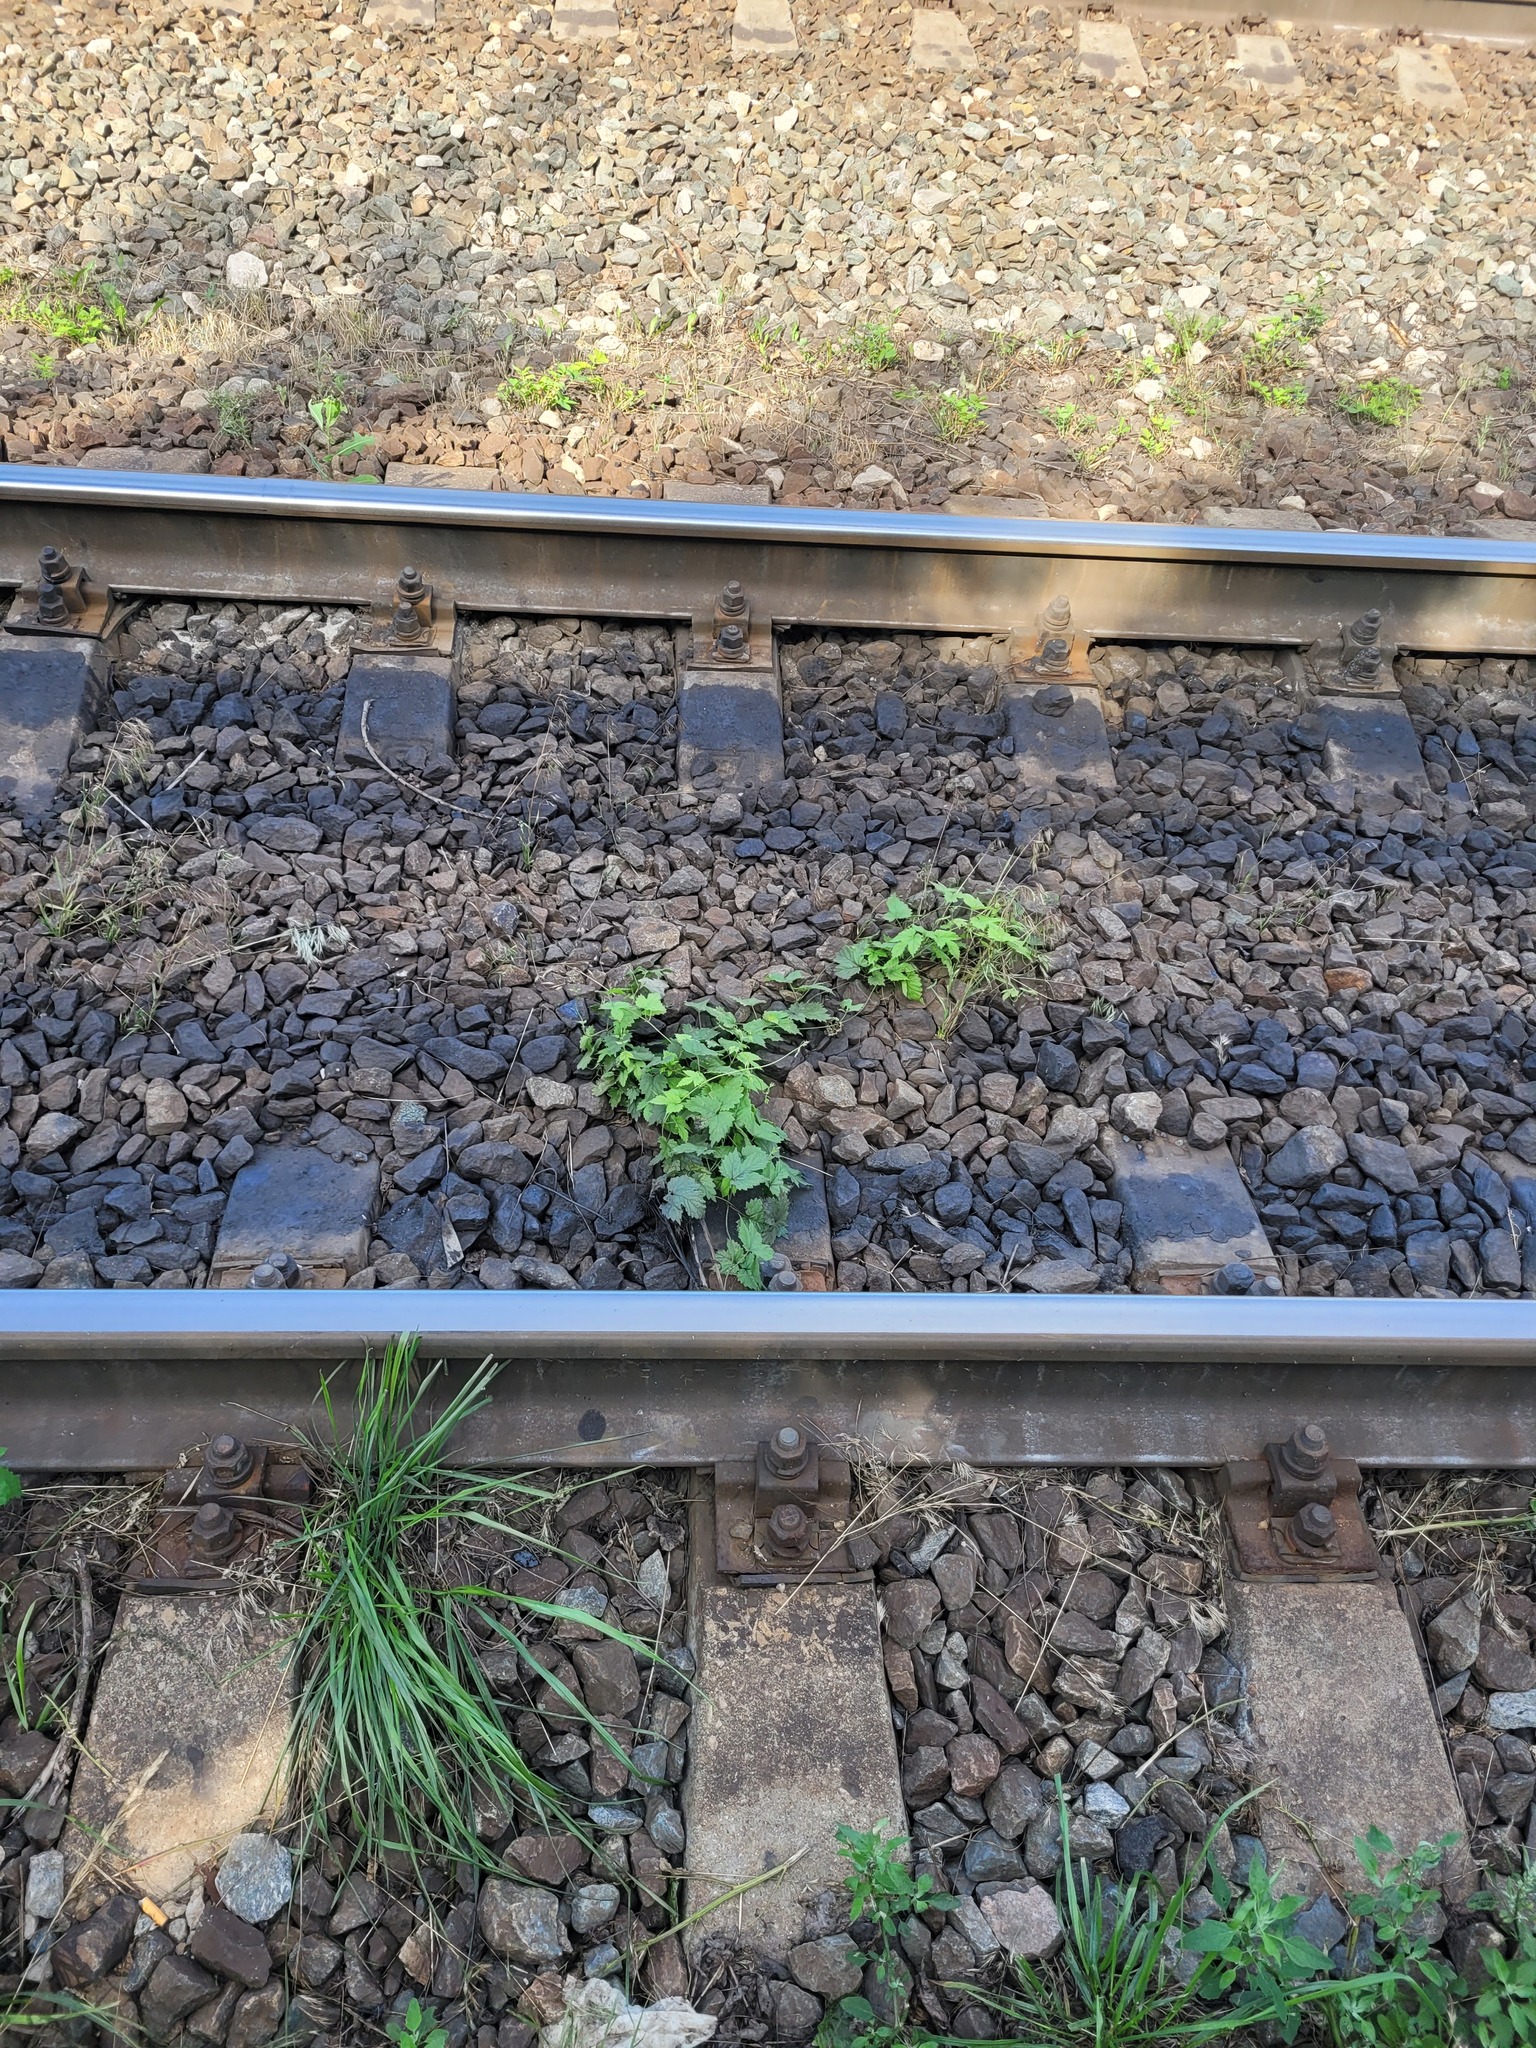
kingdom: Plantae
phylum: Tracheophyta
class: Magnoliopsida
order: Rosales
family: Cannabaceae
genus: Humulus
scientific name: Humulus lupulus
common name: Hop
